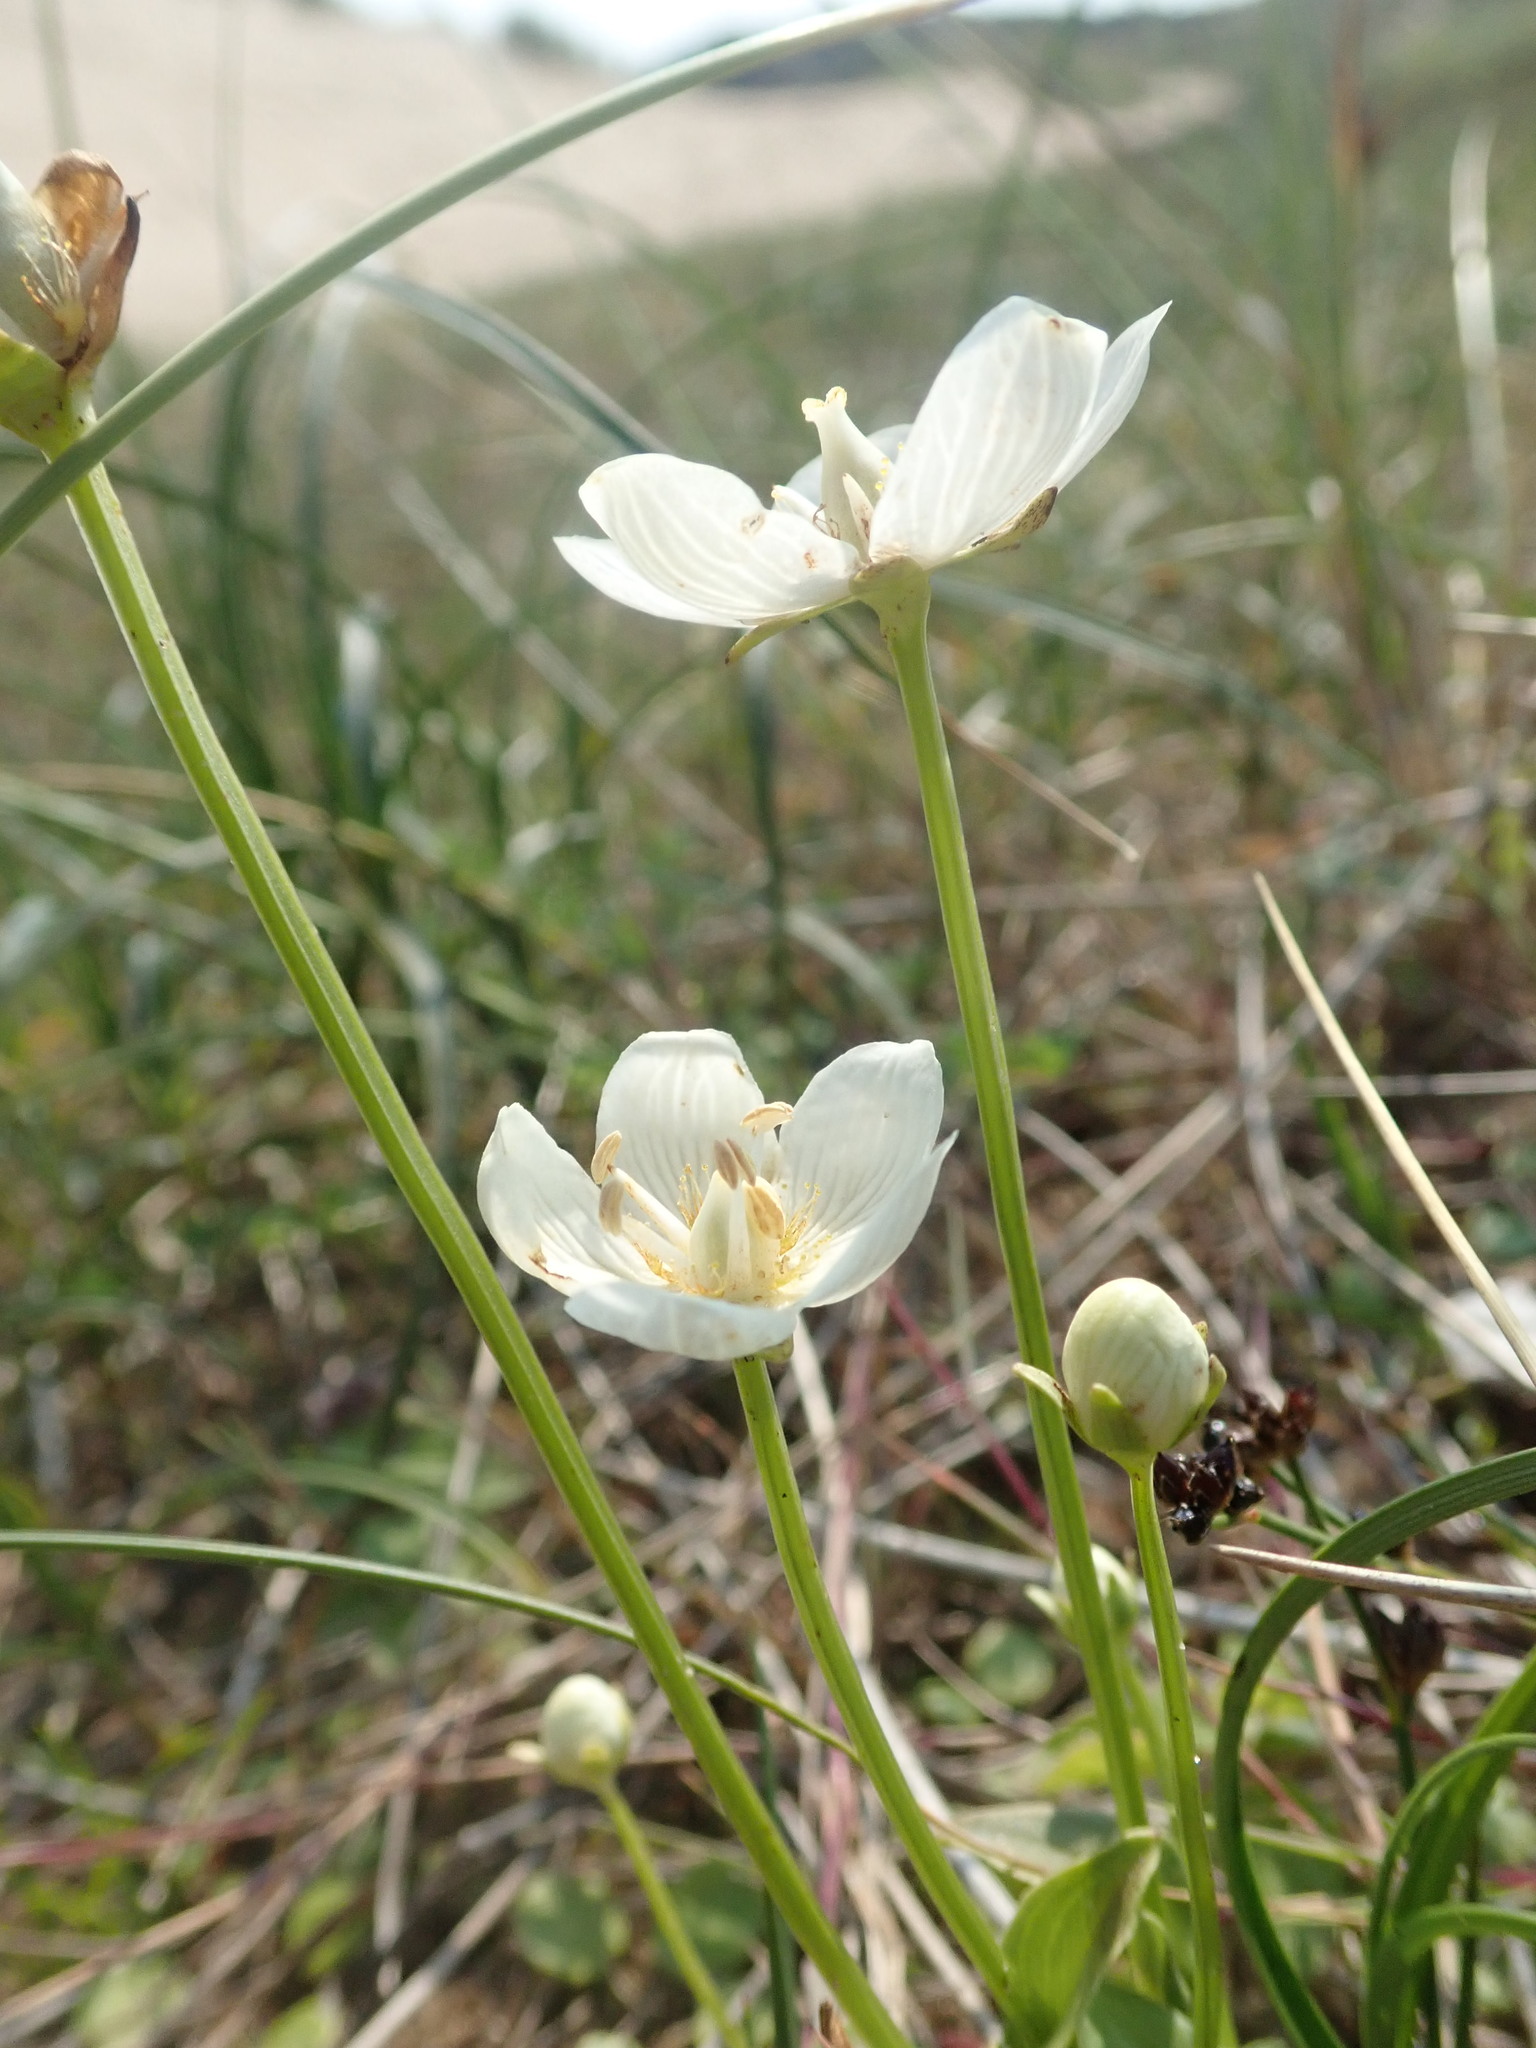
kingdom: Plantae
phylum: Tracheophyta
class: Magnoliopsida
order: Celastrales
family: Parnassiaceae
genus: Parnassia
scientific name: Parnassia palustris
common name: Grass-of-parnassus
